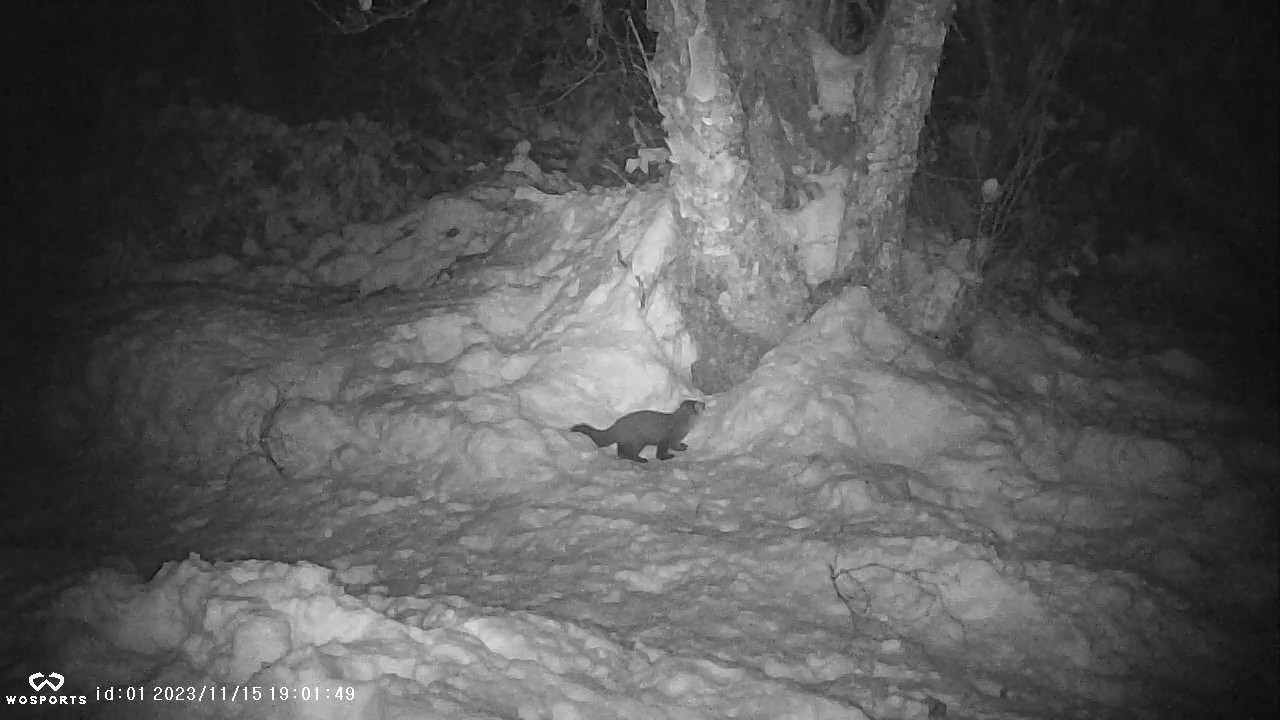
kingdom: Animalia
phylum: Chordata
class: Mammalia
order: Carnivora
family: Mustelidae
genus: Martes
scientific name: Martes americana
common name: American marten
